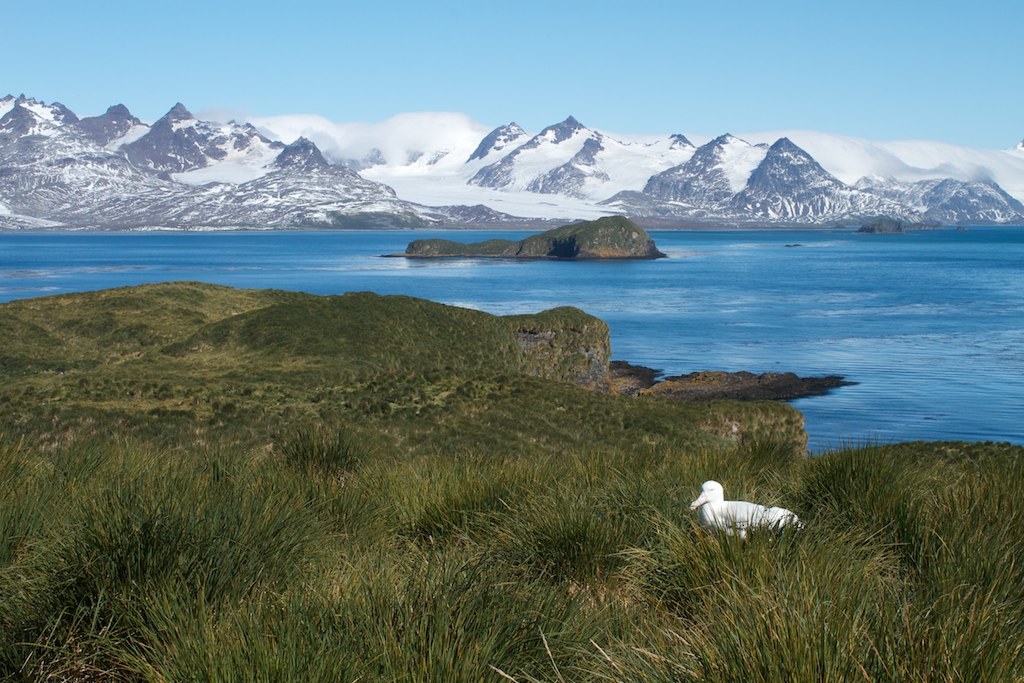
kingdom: Animalia
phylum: Chordata
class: Aves
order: Procellariiformes
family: Diomedeidae
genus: Diomedea
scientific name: Diomedea exulans
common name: Wandering albatross
